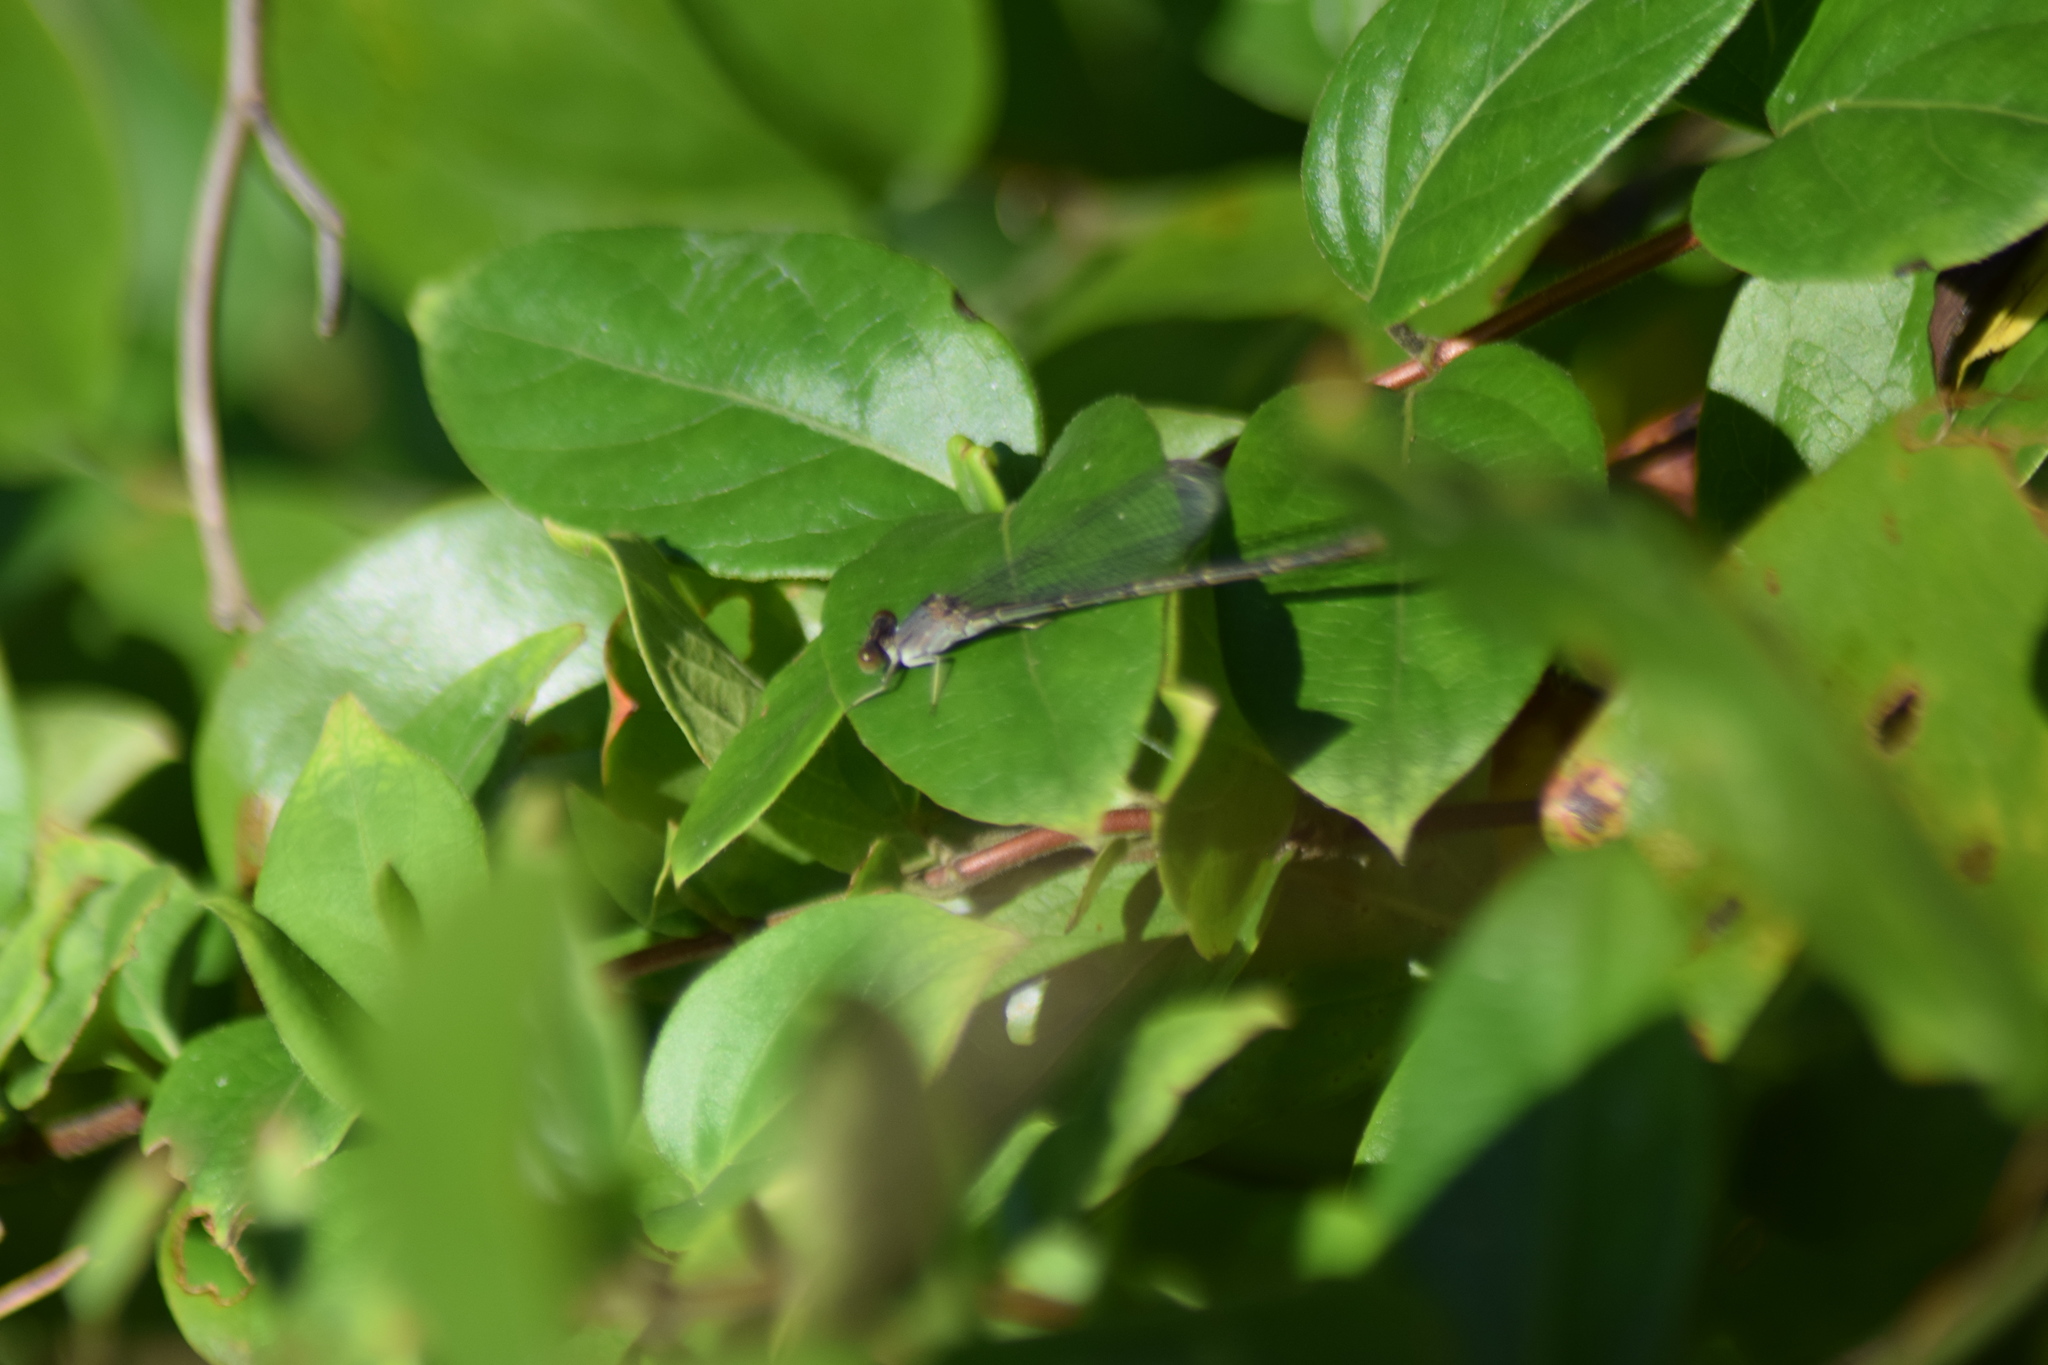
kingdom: Animalia
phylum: Arthropoda
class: Insecta
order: Odonata
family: Coenagrionidae
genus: Argia
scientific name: Argia apicalis
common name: Blue-fronted dancer
